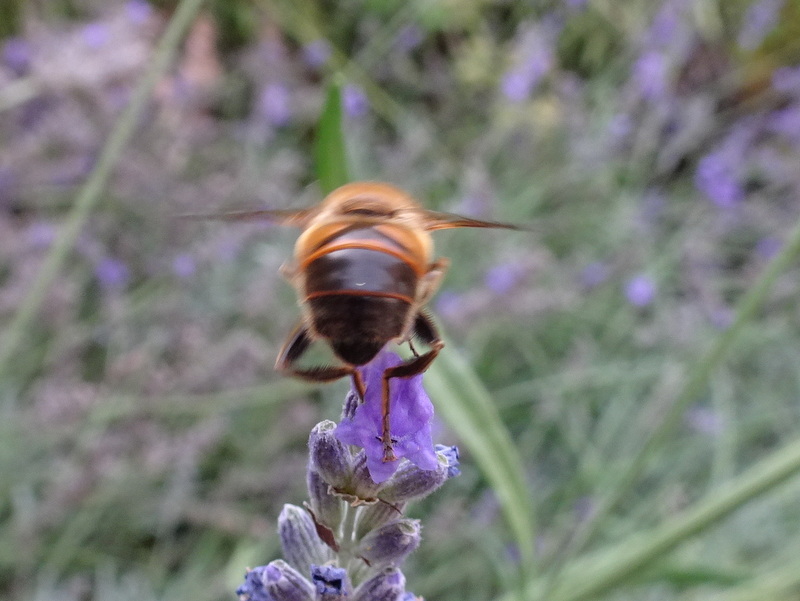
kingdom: Animalia
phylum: Arthropoda
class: Insecta
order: Diptera
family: Syrphidae
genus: Eristalis
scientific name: Eristalis tenax
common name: Drone fly
